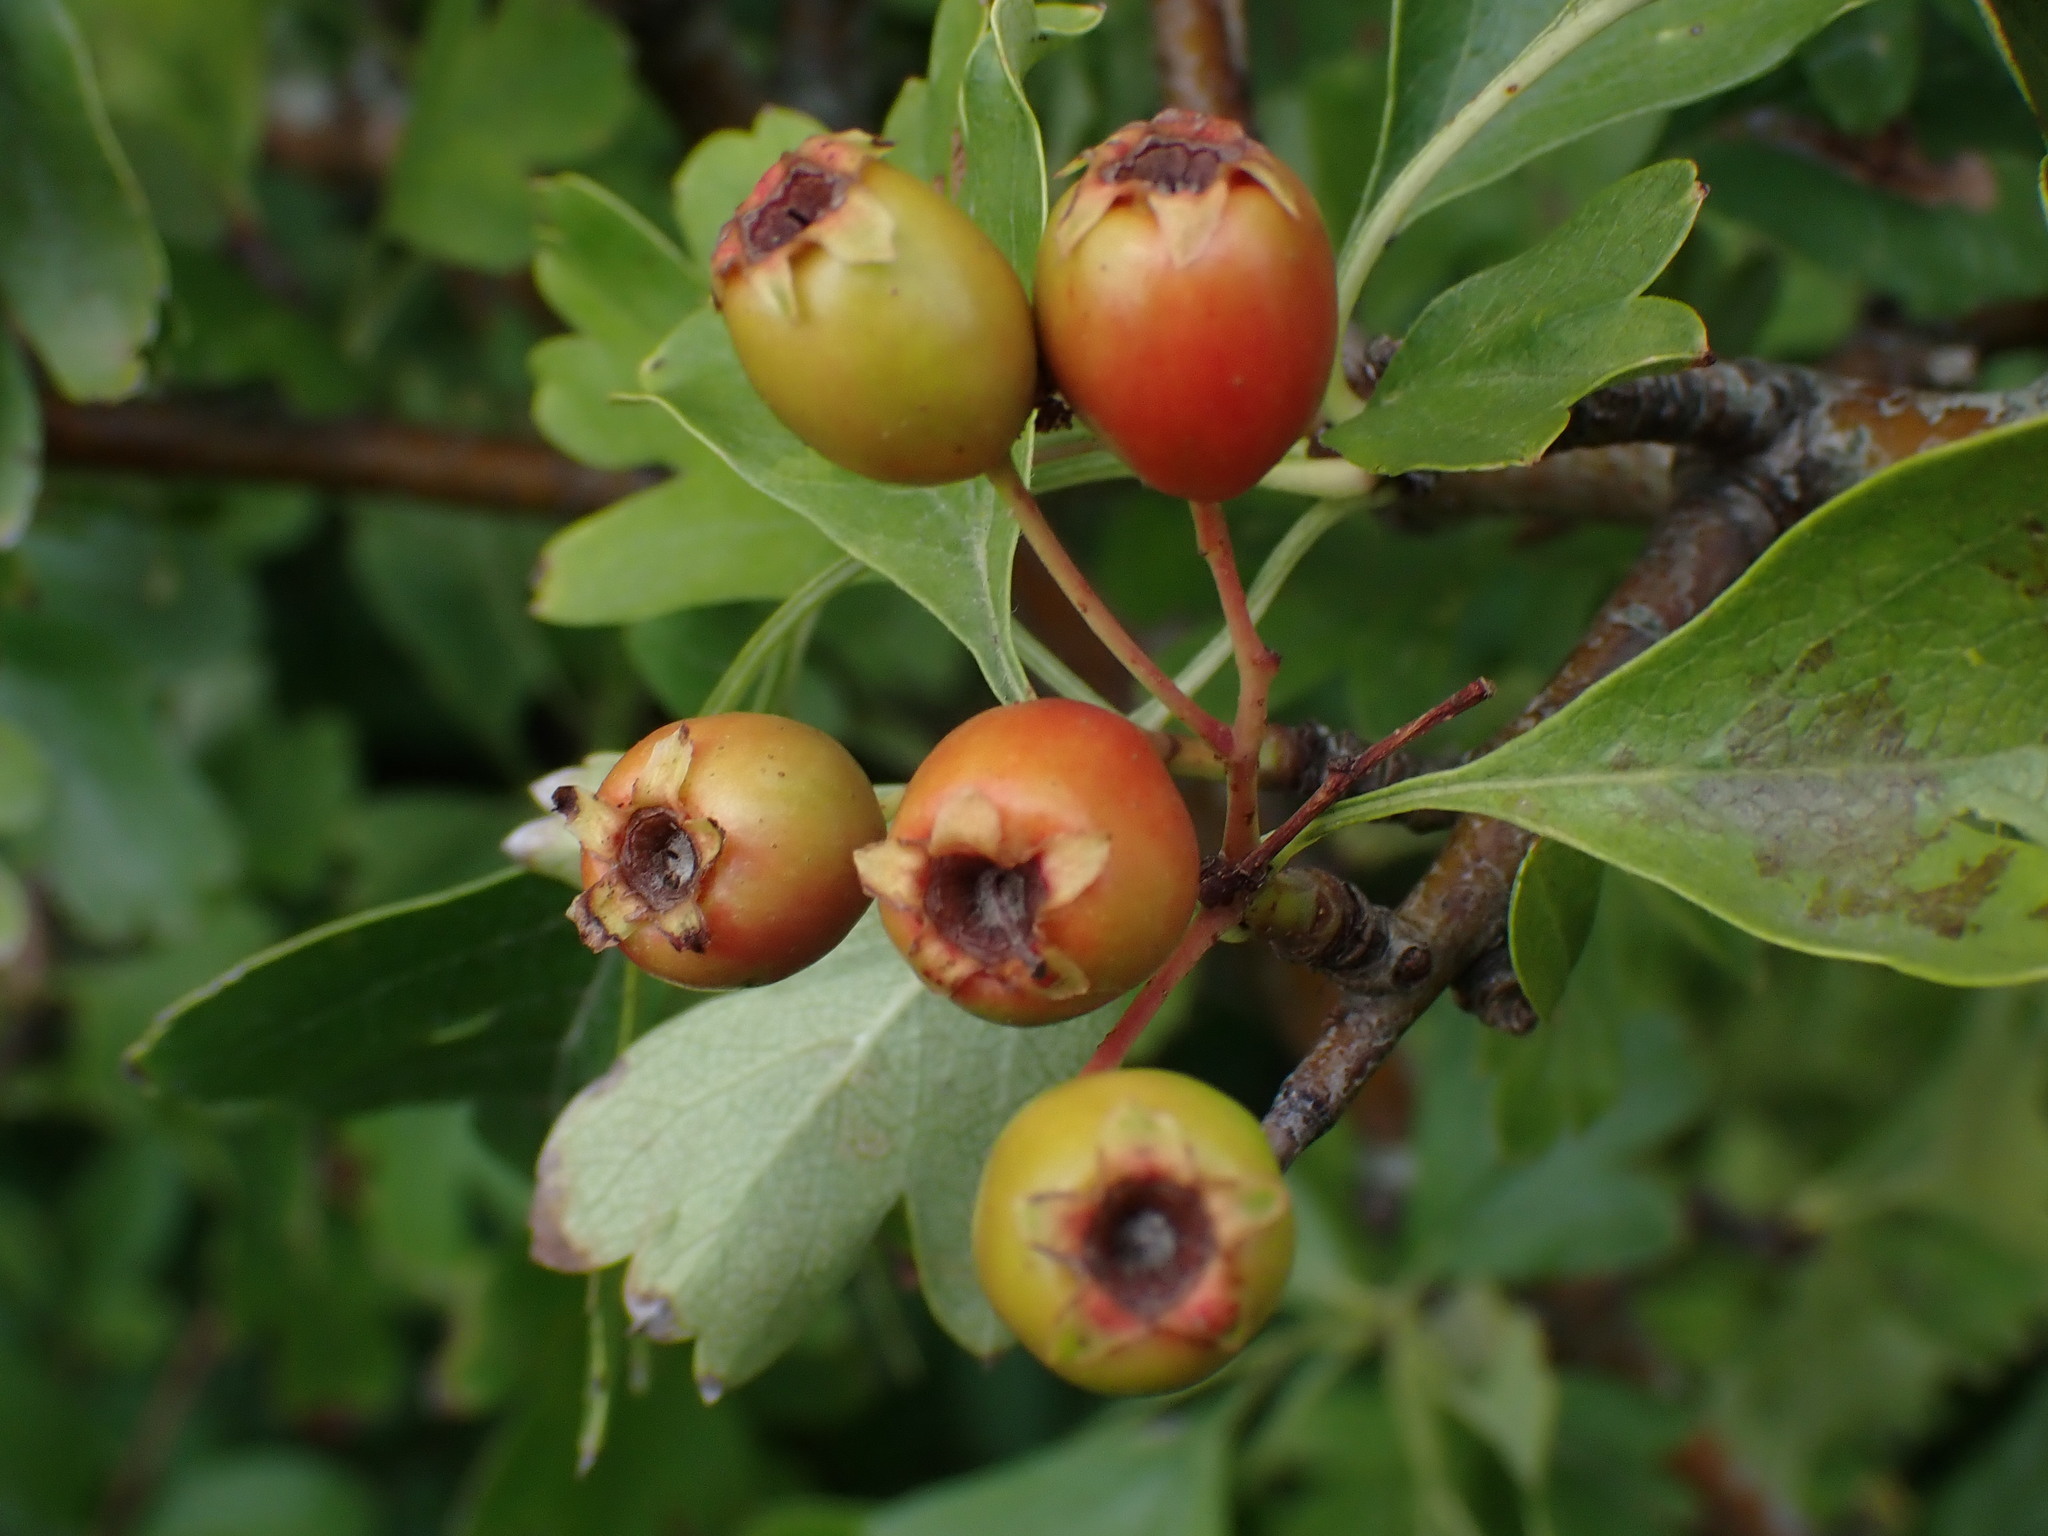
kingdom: Plantae
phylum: Tracheophyta
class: Magnoliopsida
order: Rosales
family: Rosaceae
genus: Crataegus
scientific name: Crataegus monogyna
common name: Hawthorn
